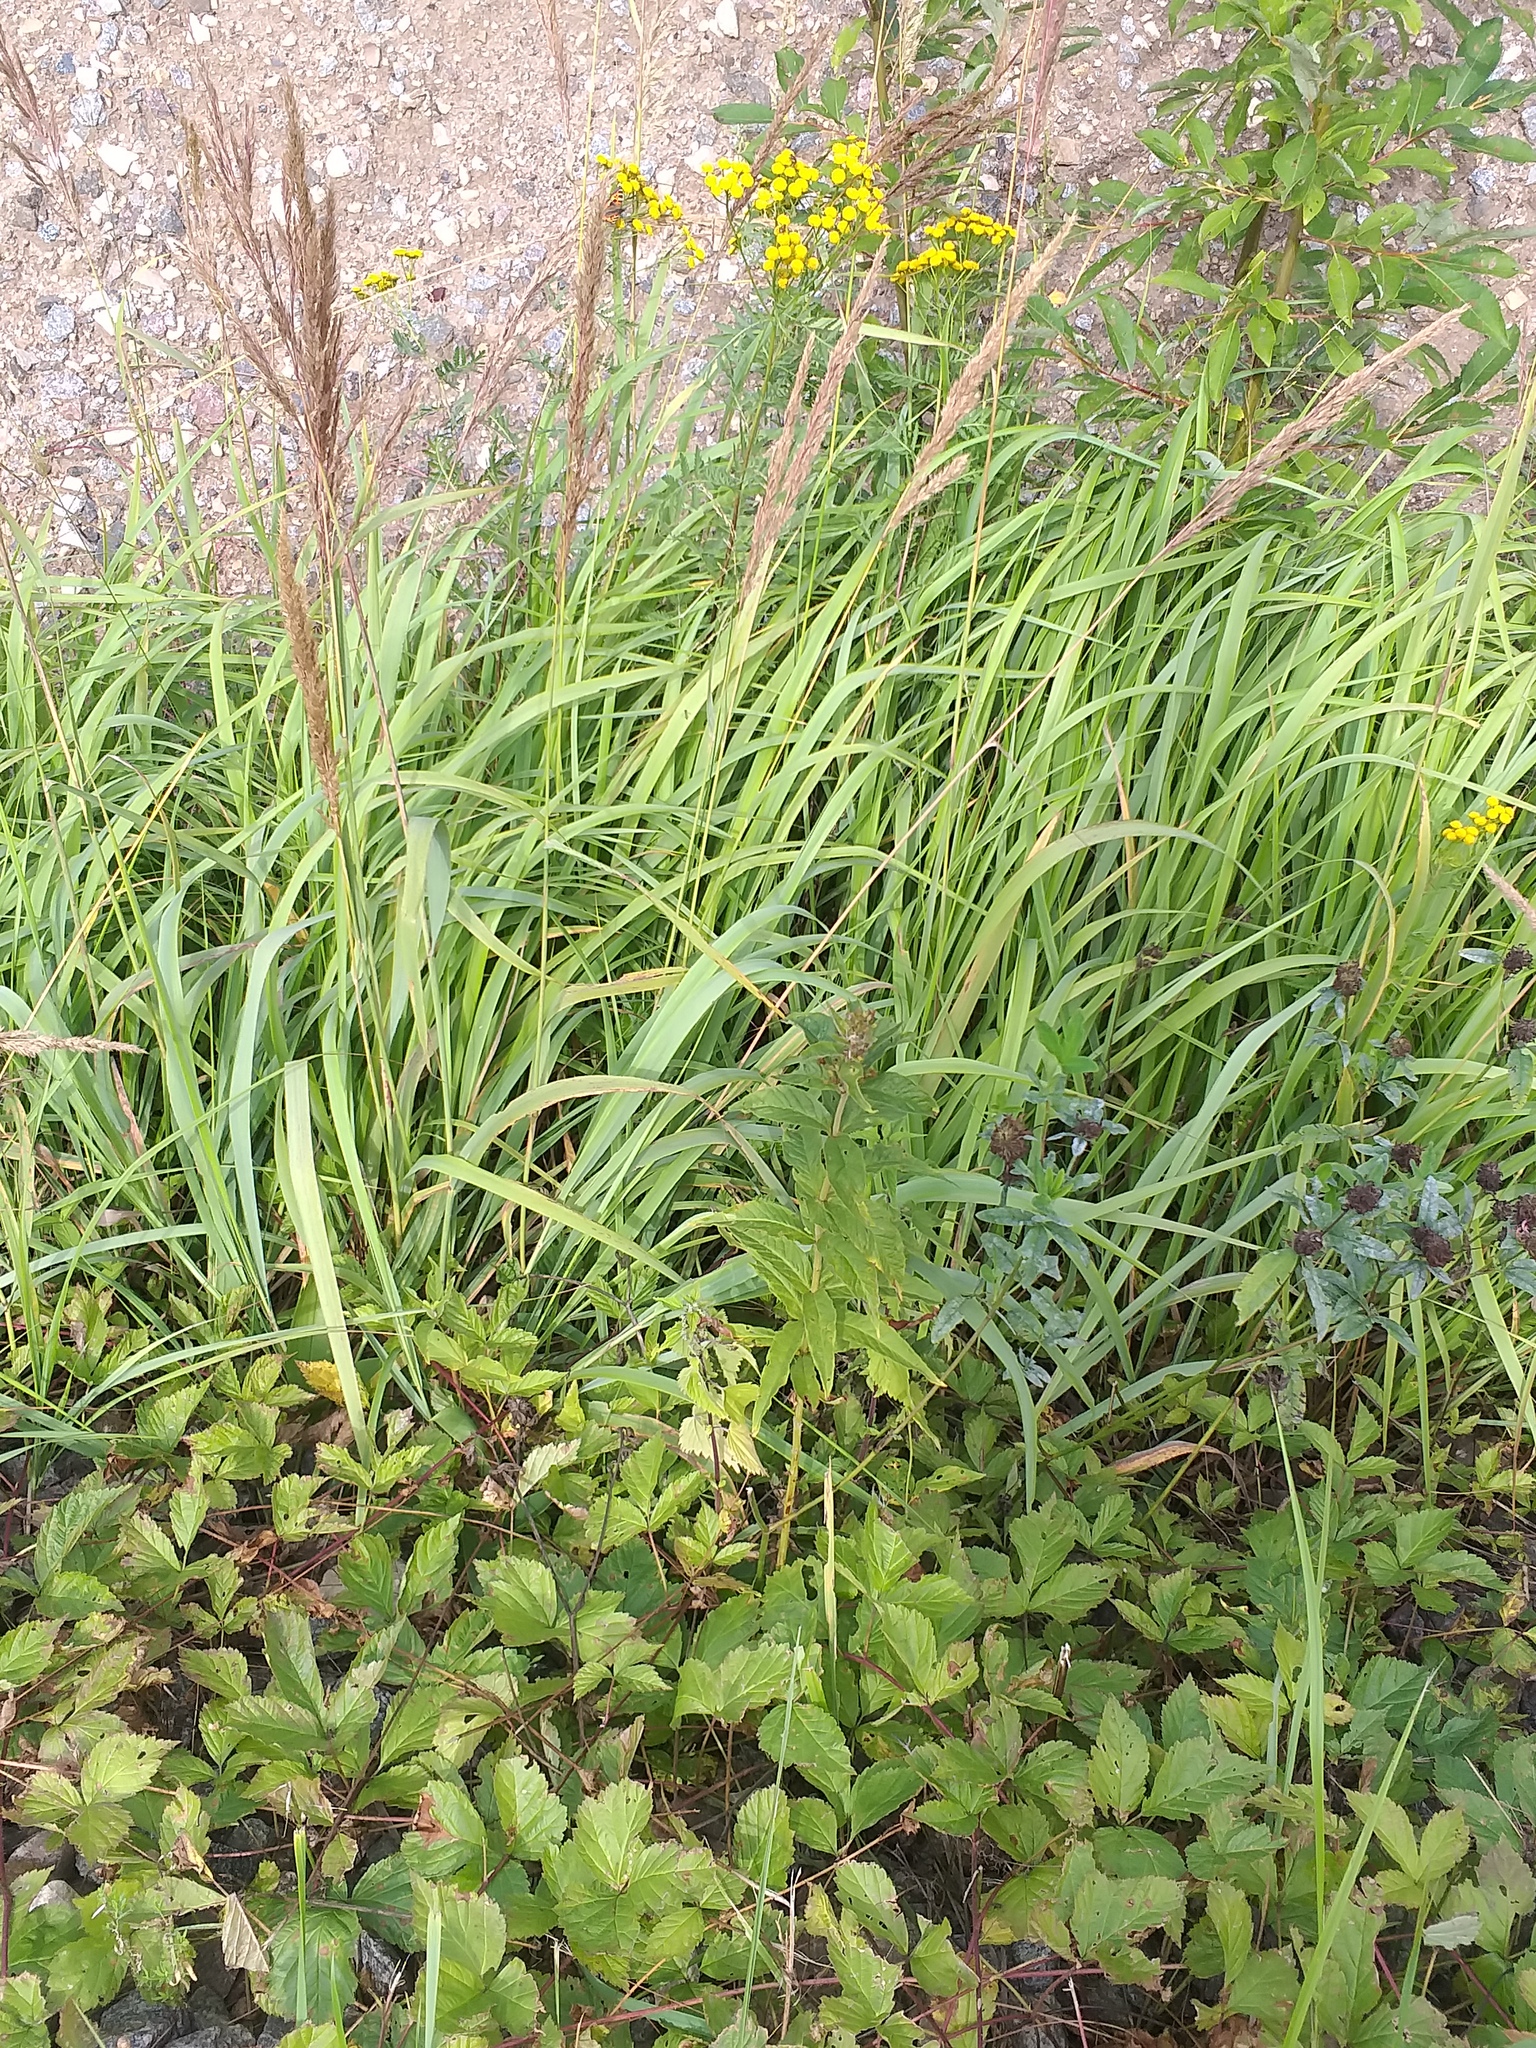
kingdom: Plantae
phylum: Tracheophyta
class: Magnoliopsida
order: Ericales
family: Primulaceae
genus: Lysimachia
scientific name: Lysimachia vulgaris
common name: Yellow loosestrife
